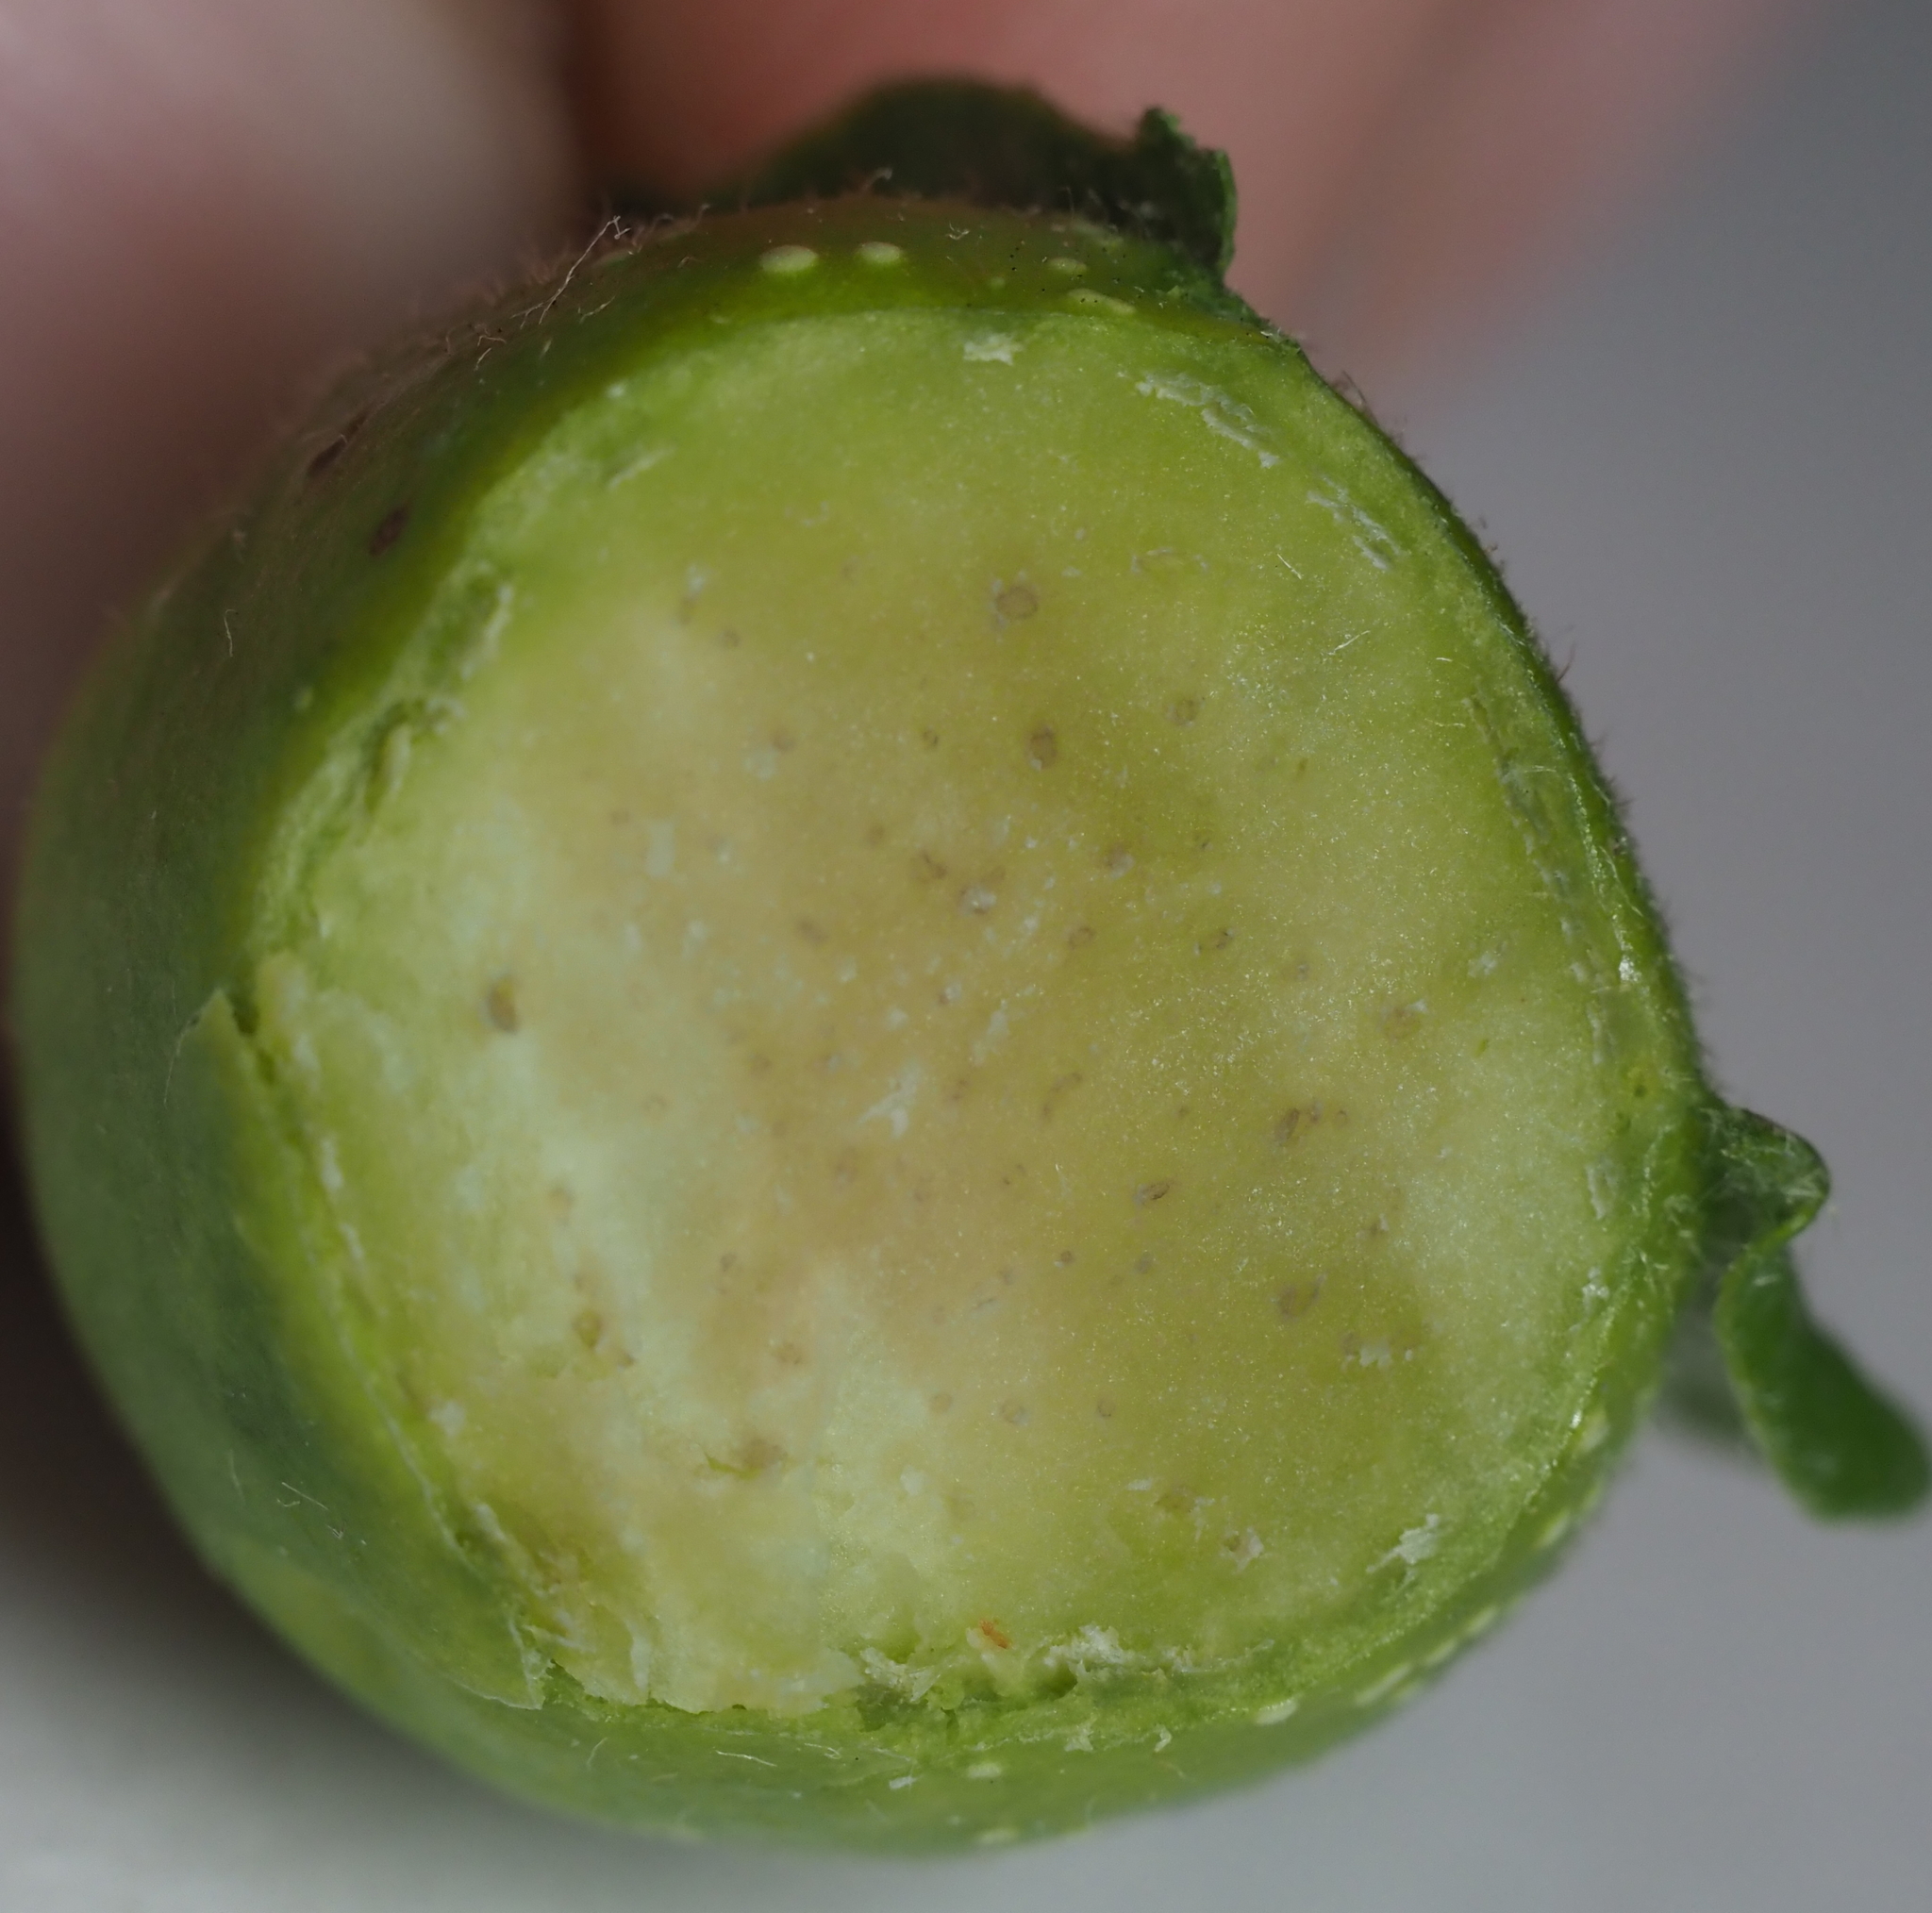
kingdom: Animalia
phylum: Arthropoda
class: Insecta
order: Hymenoptera
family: Cynipidae
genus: Andricus
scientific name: Andricus
